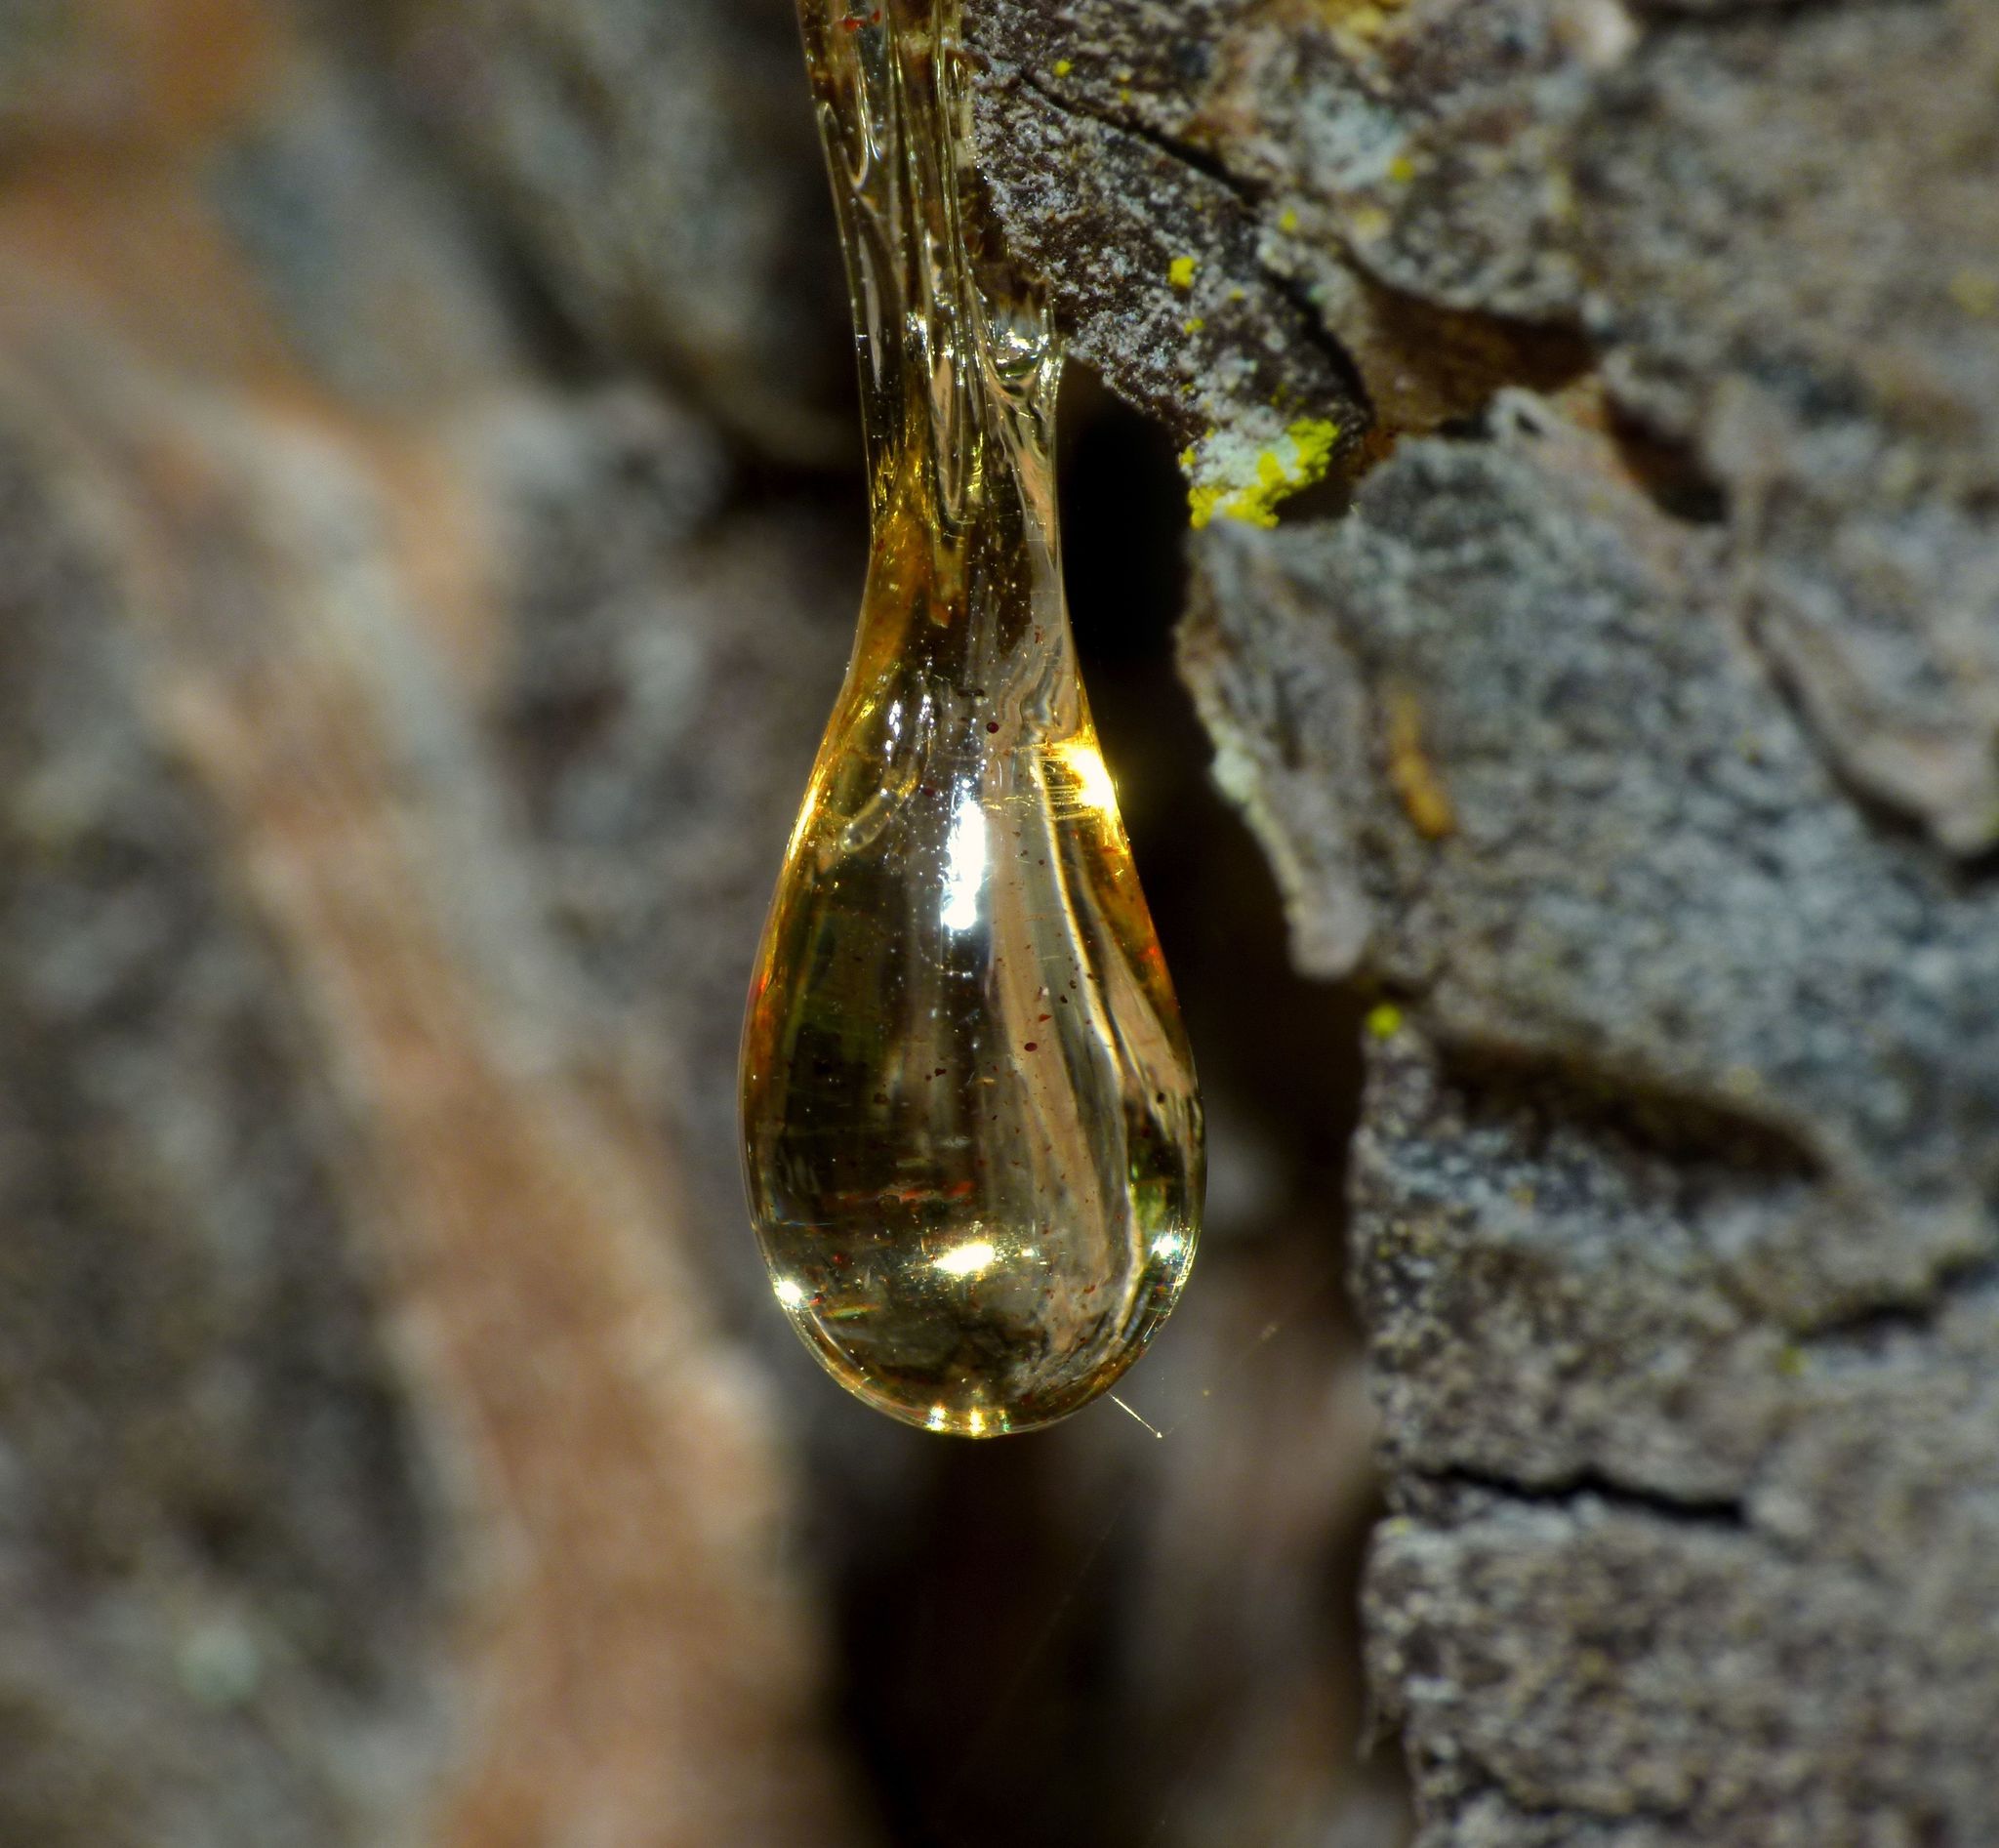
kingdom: Plantae
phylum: Tracheophyta
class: Pinopsida
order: Pinales
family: Pinaceae
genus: Pseudotsuga
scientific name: Pseudotsuga menziesii
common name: Douglas fir
